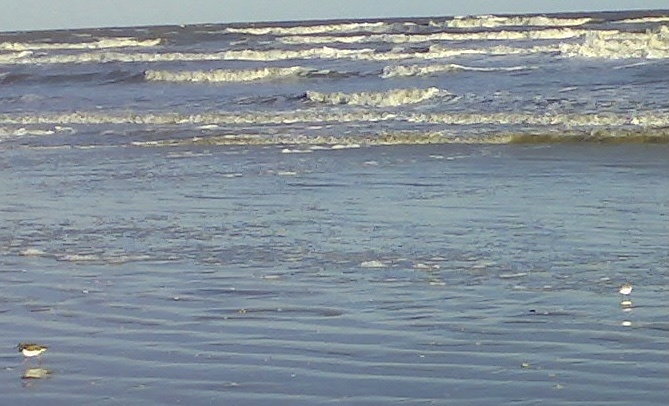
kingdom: Animalia
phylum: Chordata
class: Aves
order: Charadriiformes
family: Scolopacidae
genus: Arenaria
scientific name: Arenaria interpres
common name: Ruddy turnstone
